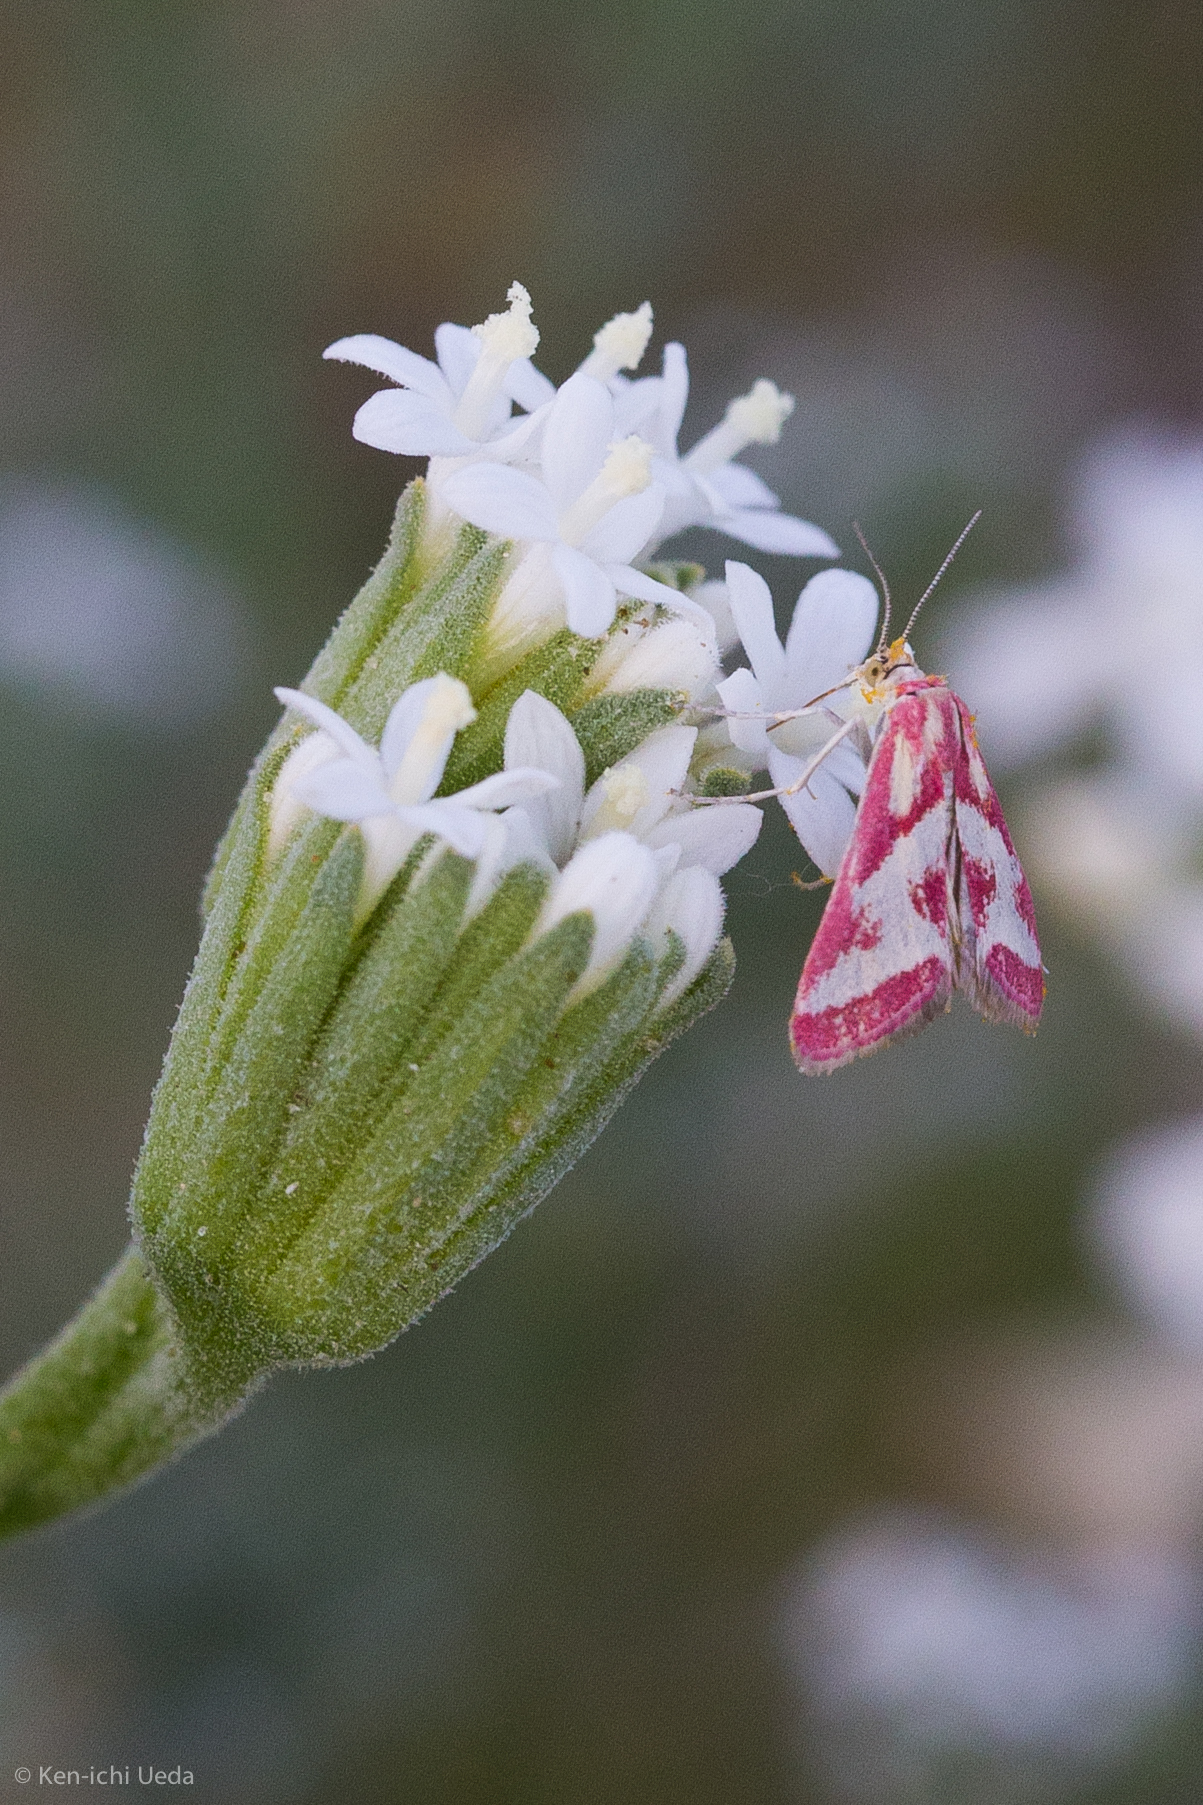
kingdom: Animalia
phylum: Arthropoda
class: Insecta
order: Lepidoptera
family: Crambidae
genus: Noctueliopsis
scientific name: Noctueliopsis aridalis
